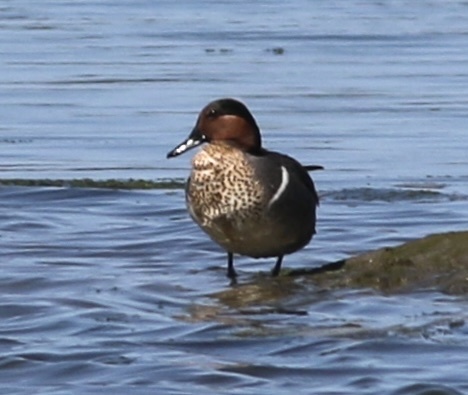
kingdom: Animalia
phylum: Chordata
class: Aves
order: Anseriformes
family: Anatidae
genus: Anas
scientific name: Anas crecca
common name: Eurasian teal
